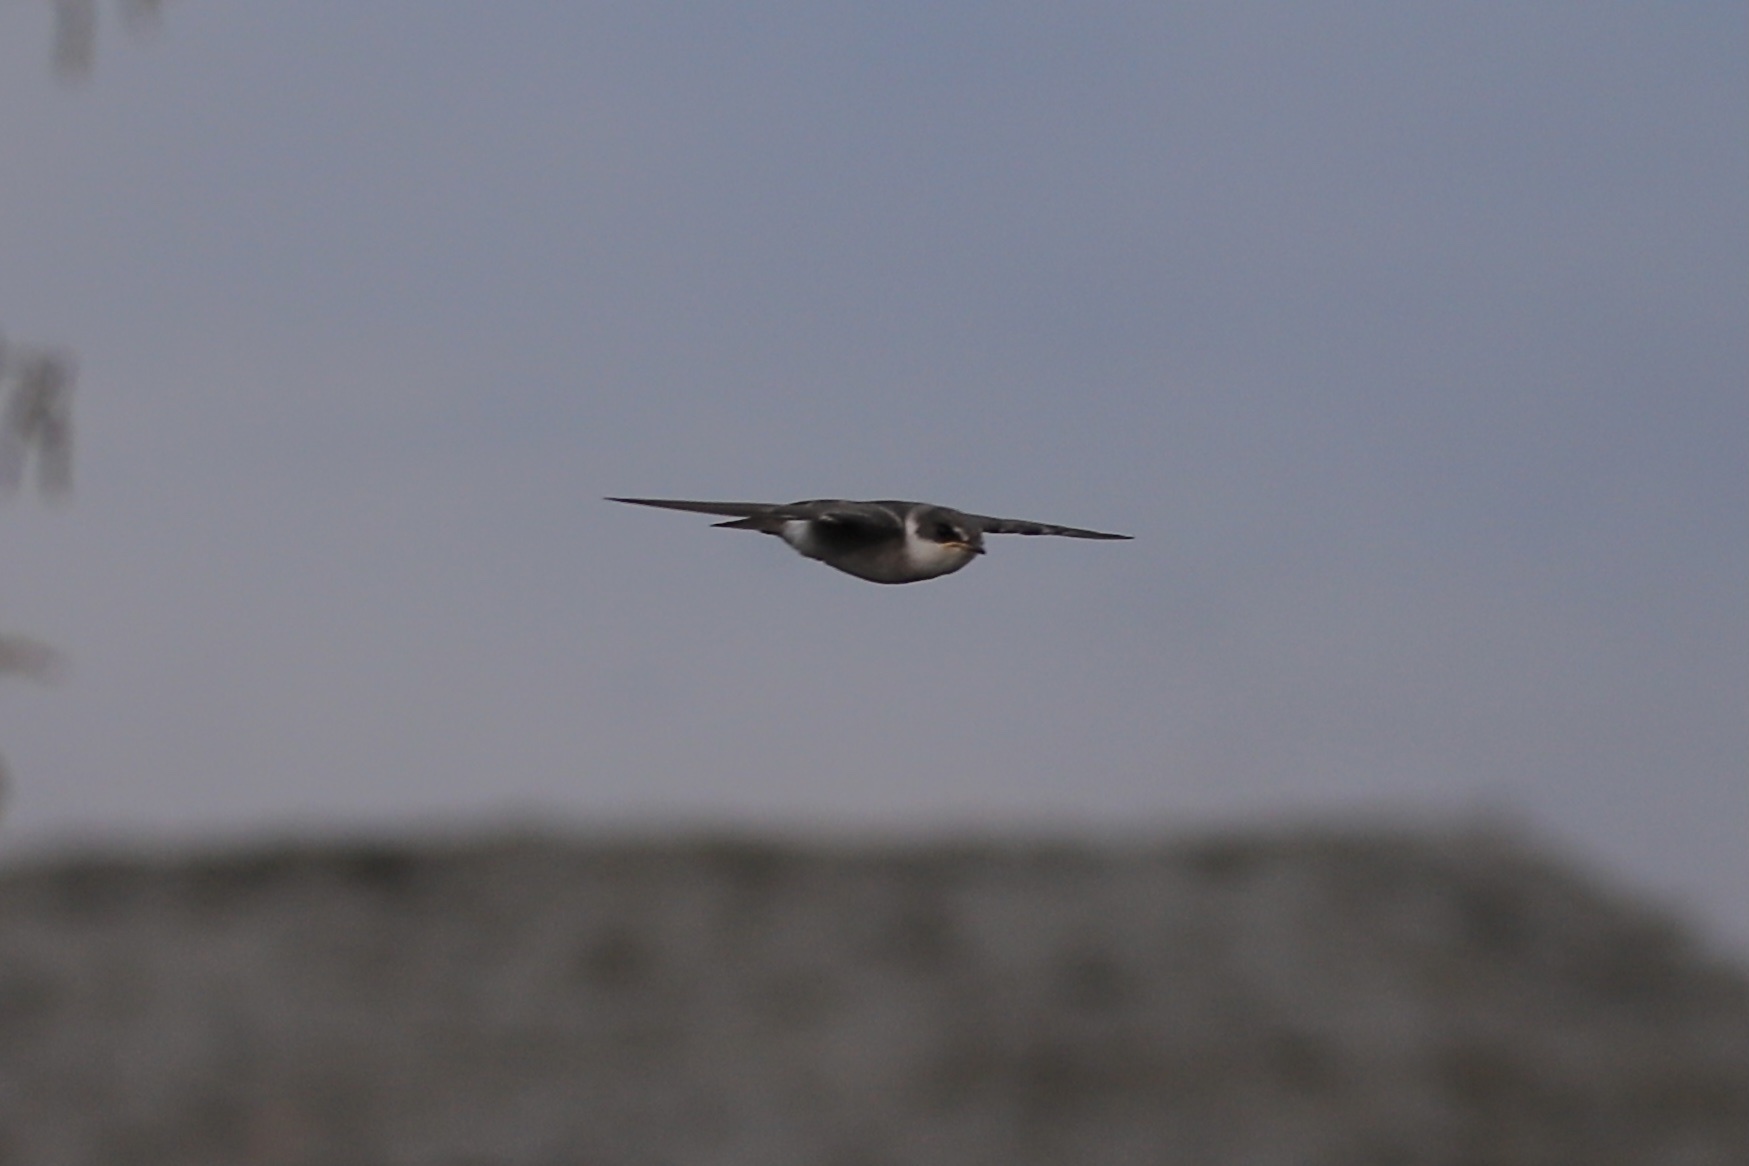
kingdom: Animalia
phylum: Chordata
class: Aves
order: Passeriformes
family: Hirundinidae
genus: Tachycineta
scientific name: Tachycineta albilinea
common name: Mangrove swallow
